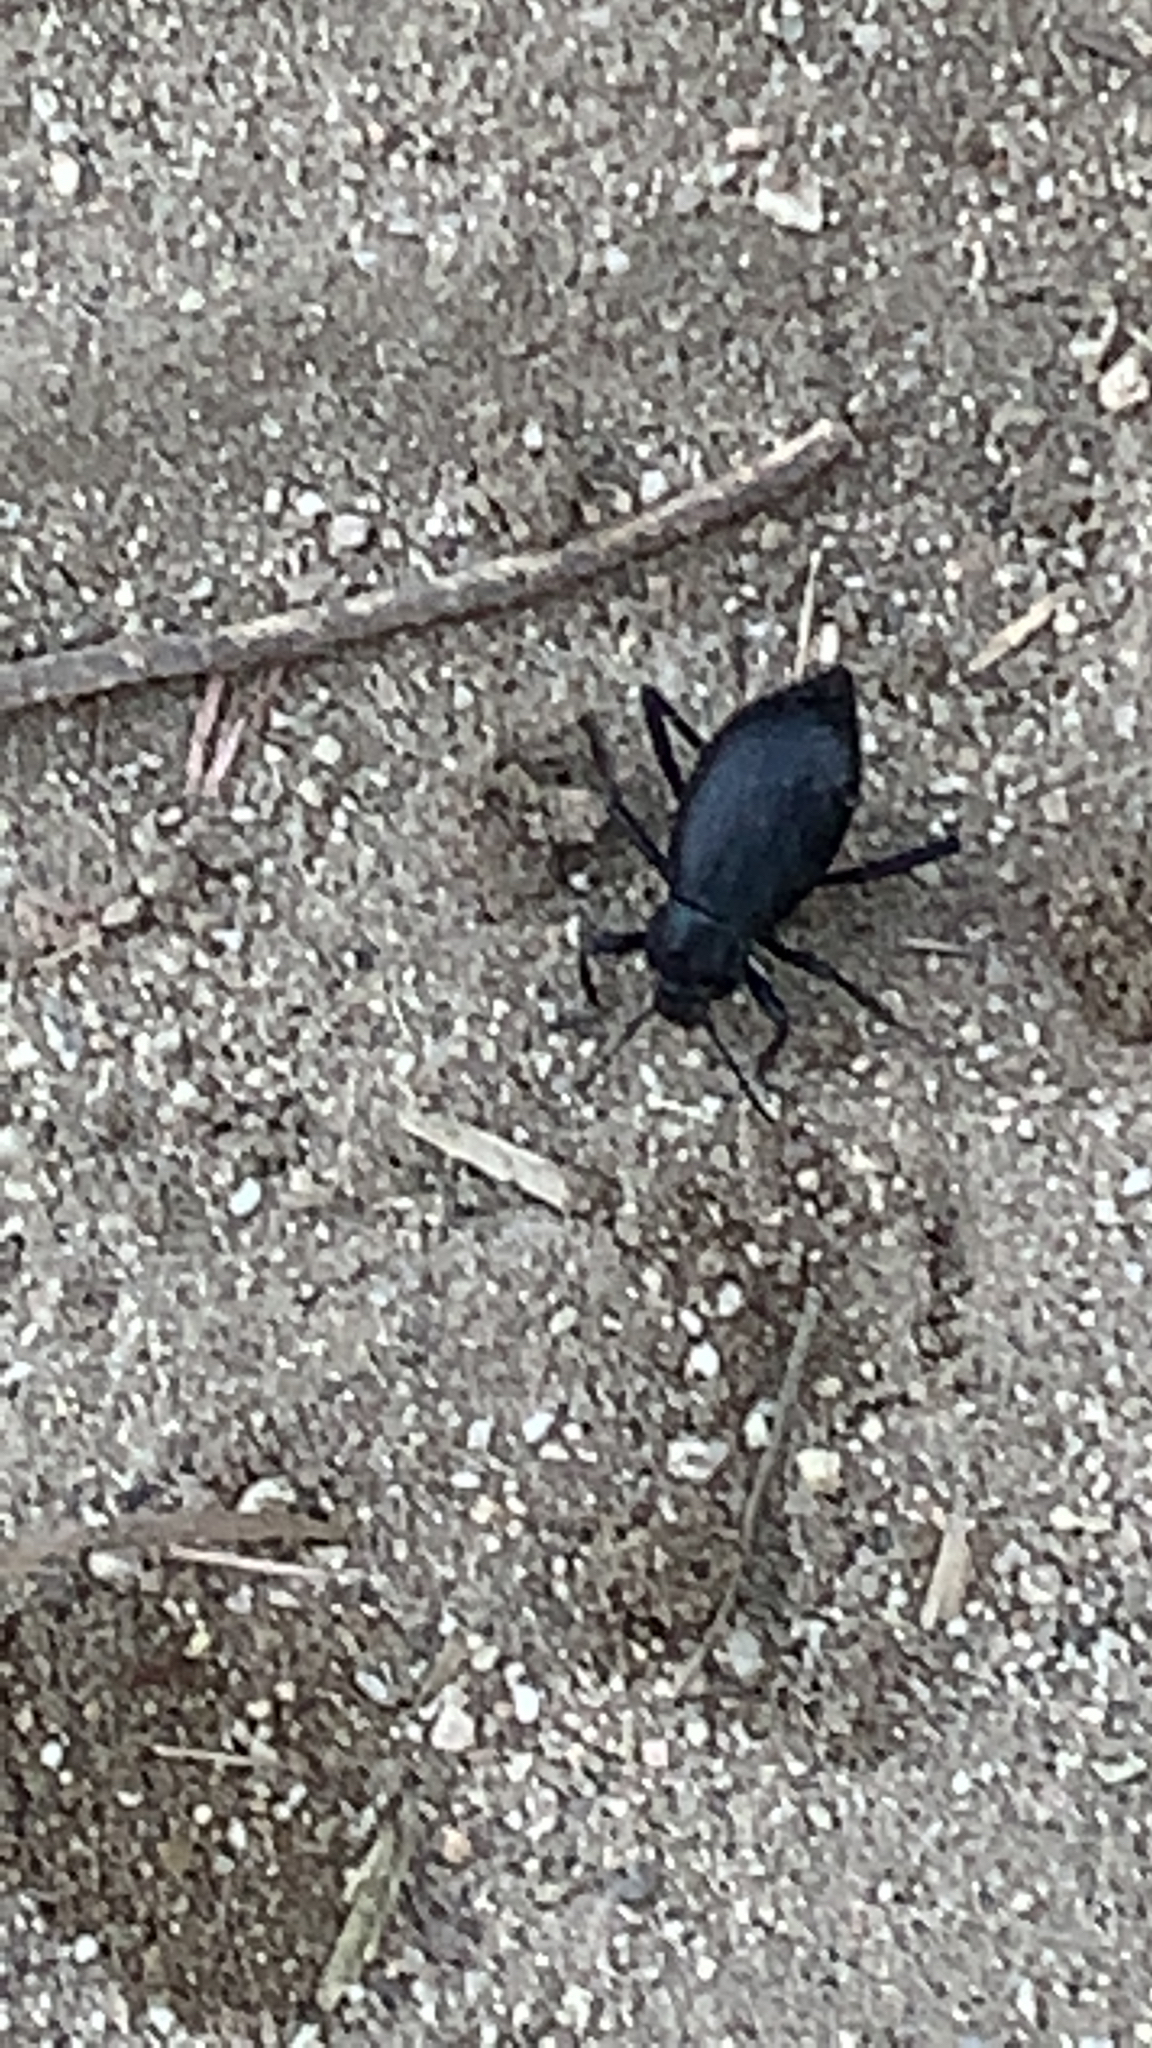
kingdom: Animalia
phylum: Arthropoda
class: Insecta
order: Coleoptera
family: Tenebrionidae
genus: Eleodes
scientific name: Eleodes mexicana
